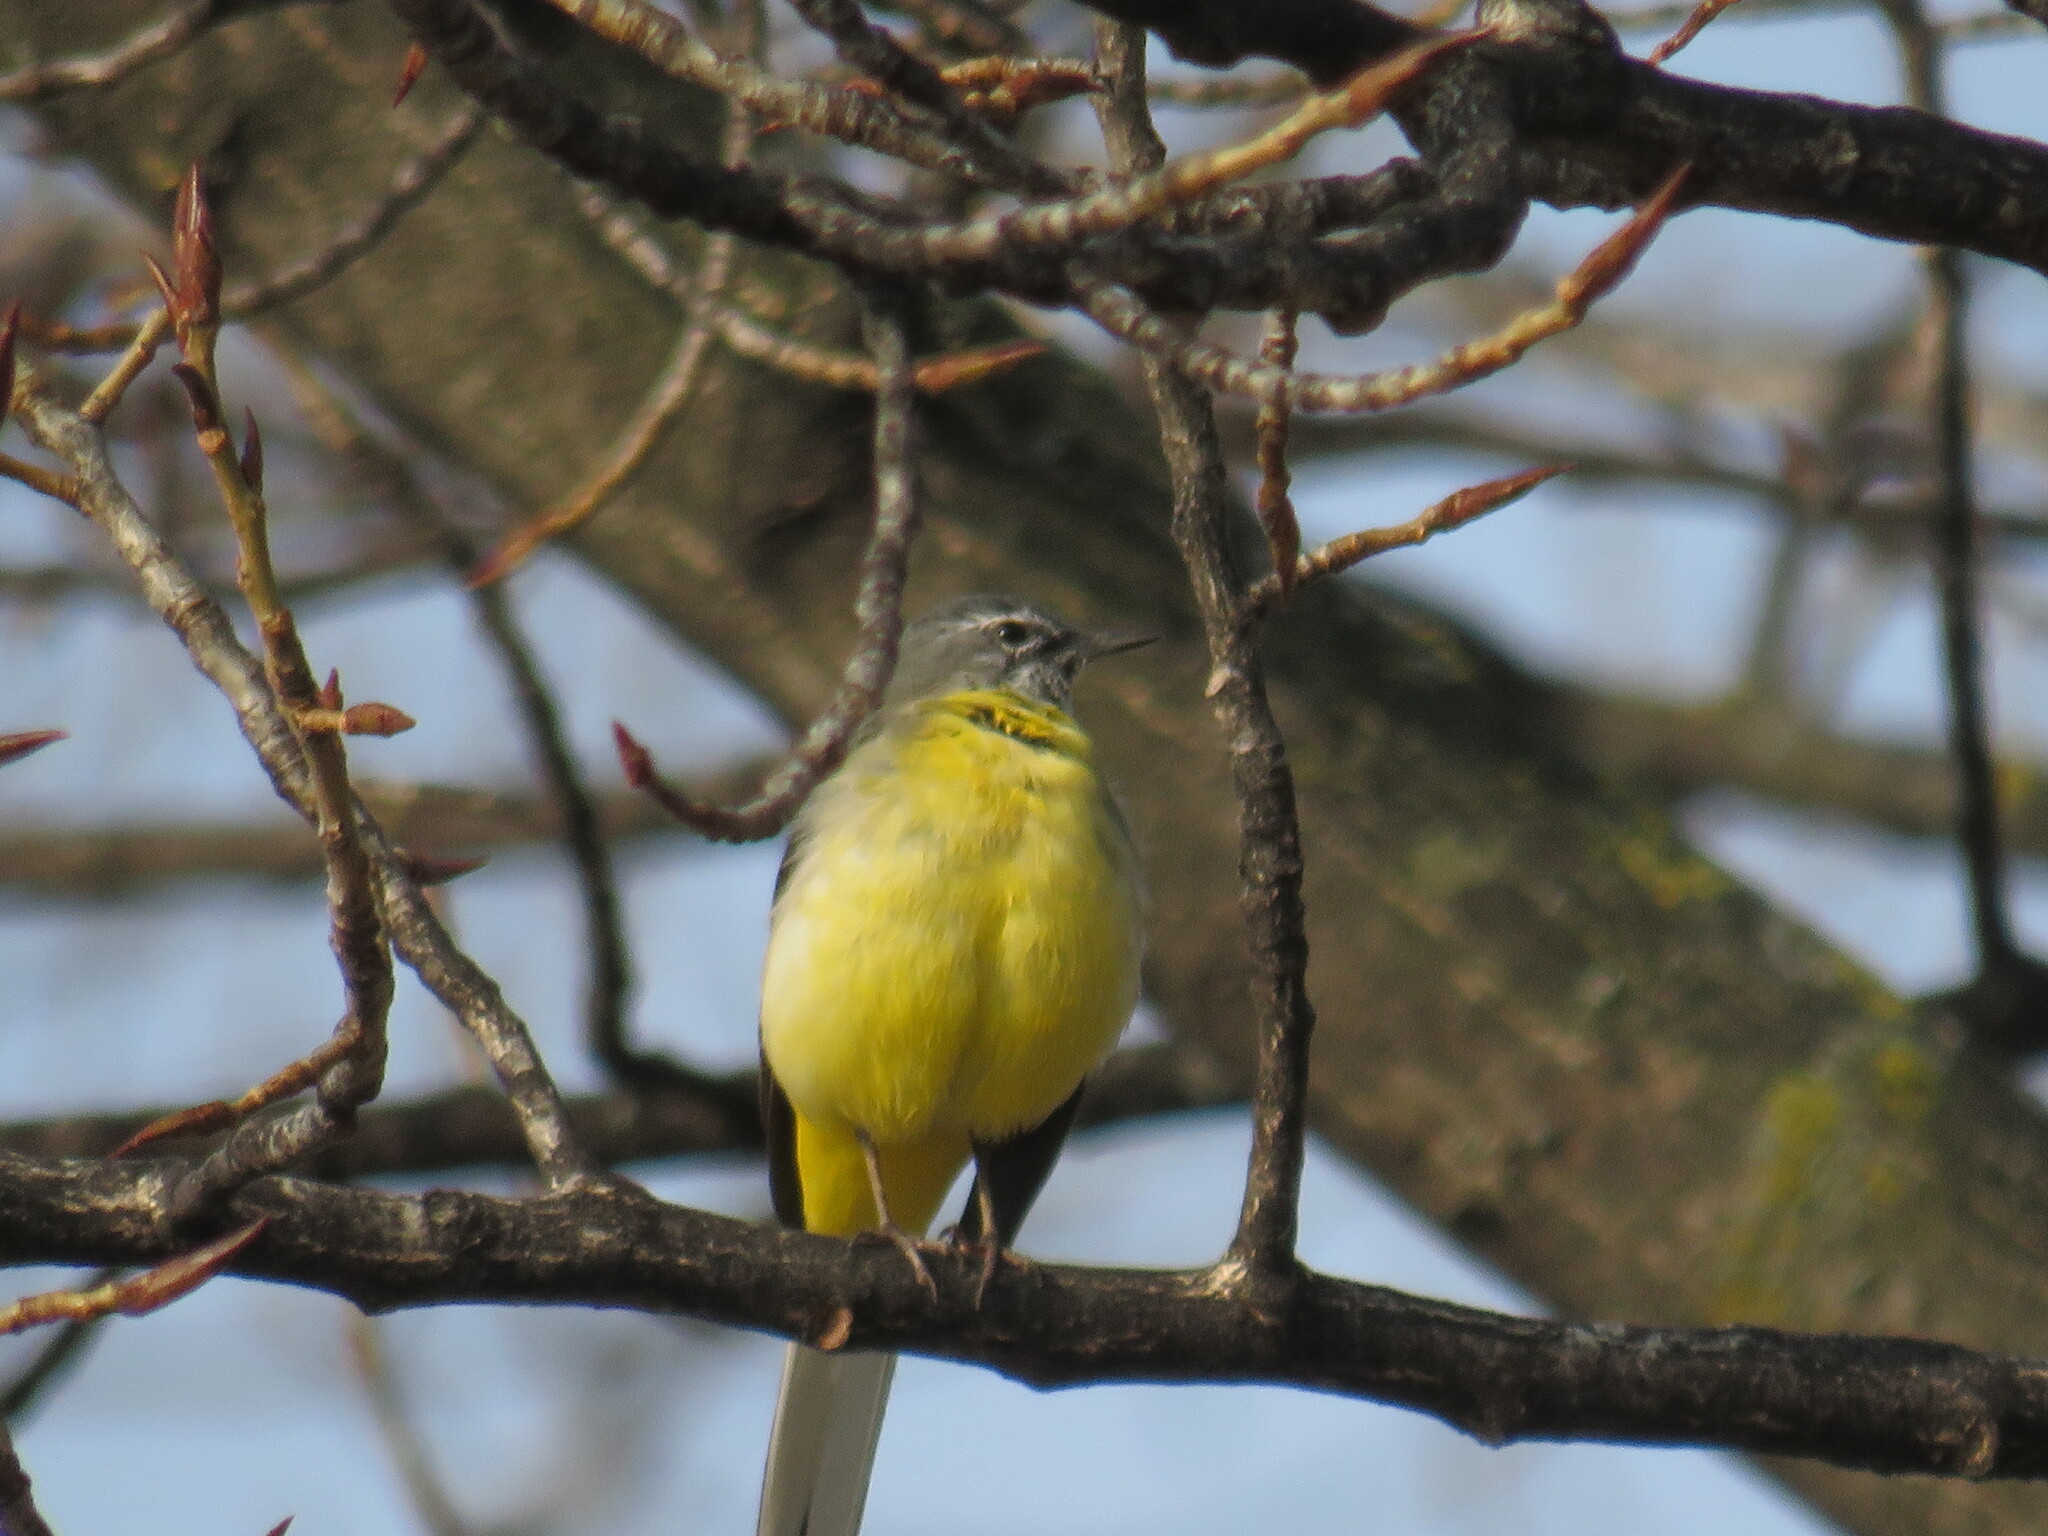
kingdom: Animalia
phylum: Chordata
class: Aves
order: Passeriformes
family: Motacillidae
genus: Motacilla
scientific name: Motacilla cinerea
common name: Grey wagtail
